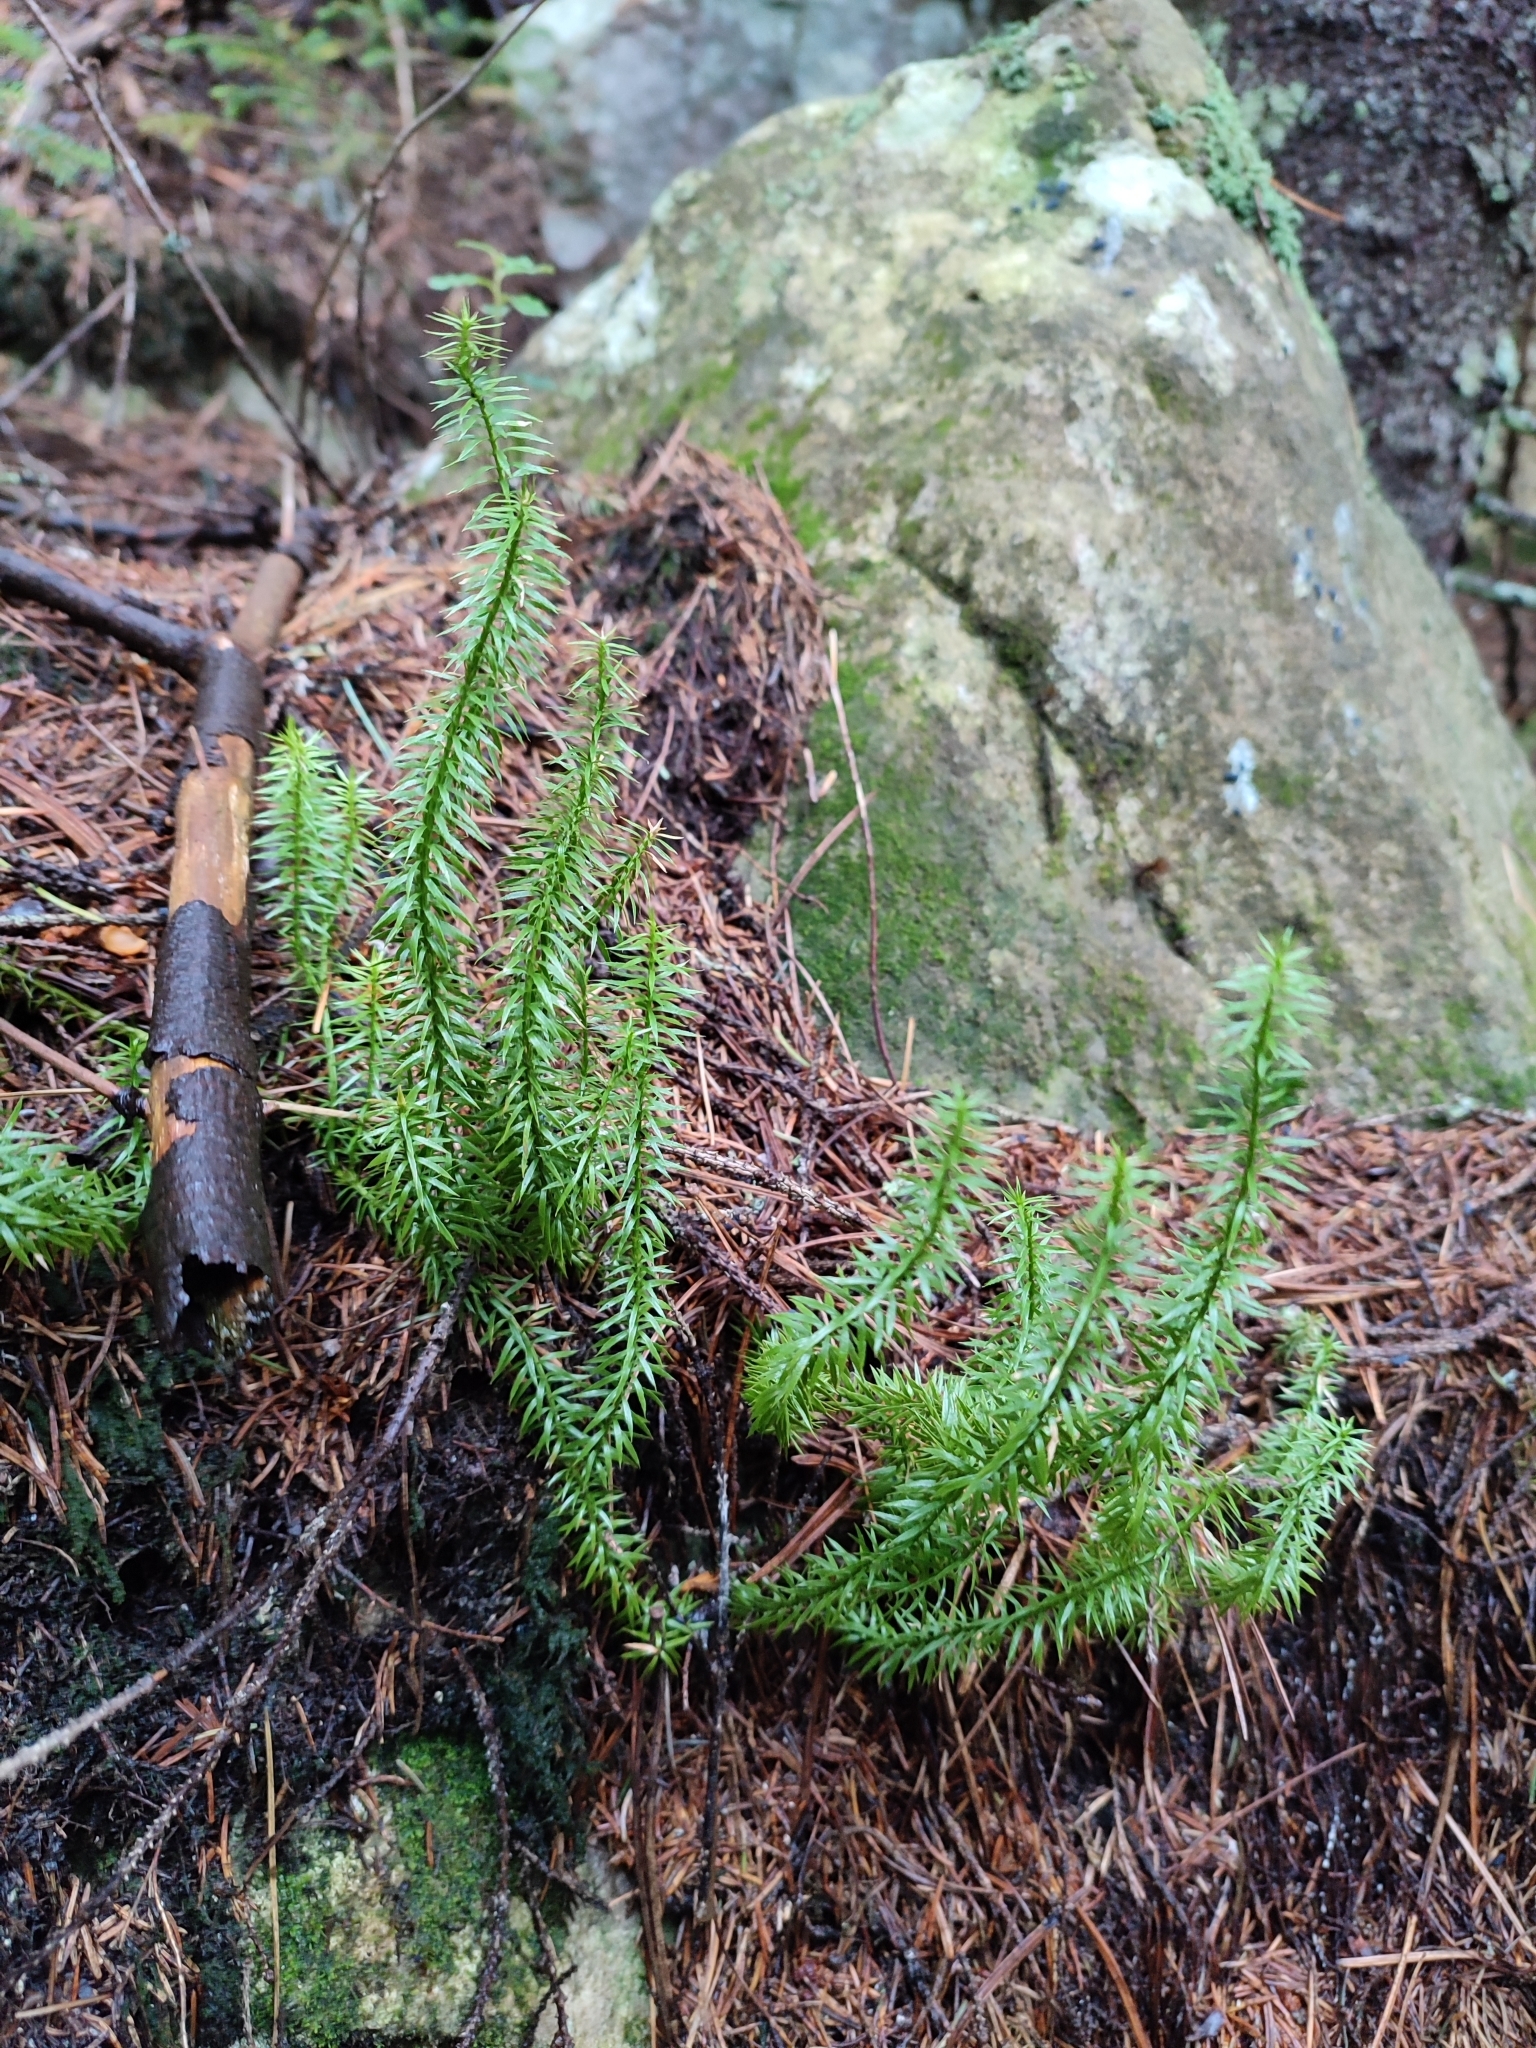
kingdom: Plantae
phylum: Tracheophyta
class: Lycopodiopsida
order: Lycopodiales
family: Lycopodiaceae
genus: Spinulum
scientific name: Spinulum annotinum
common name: Interrupted club-moss
